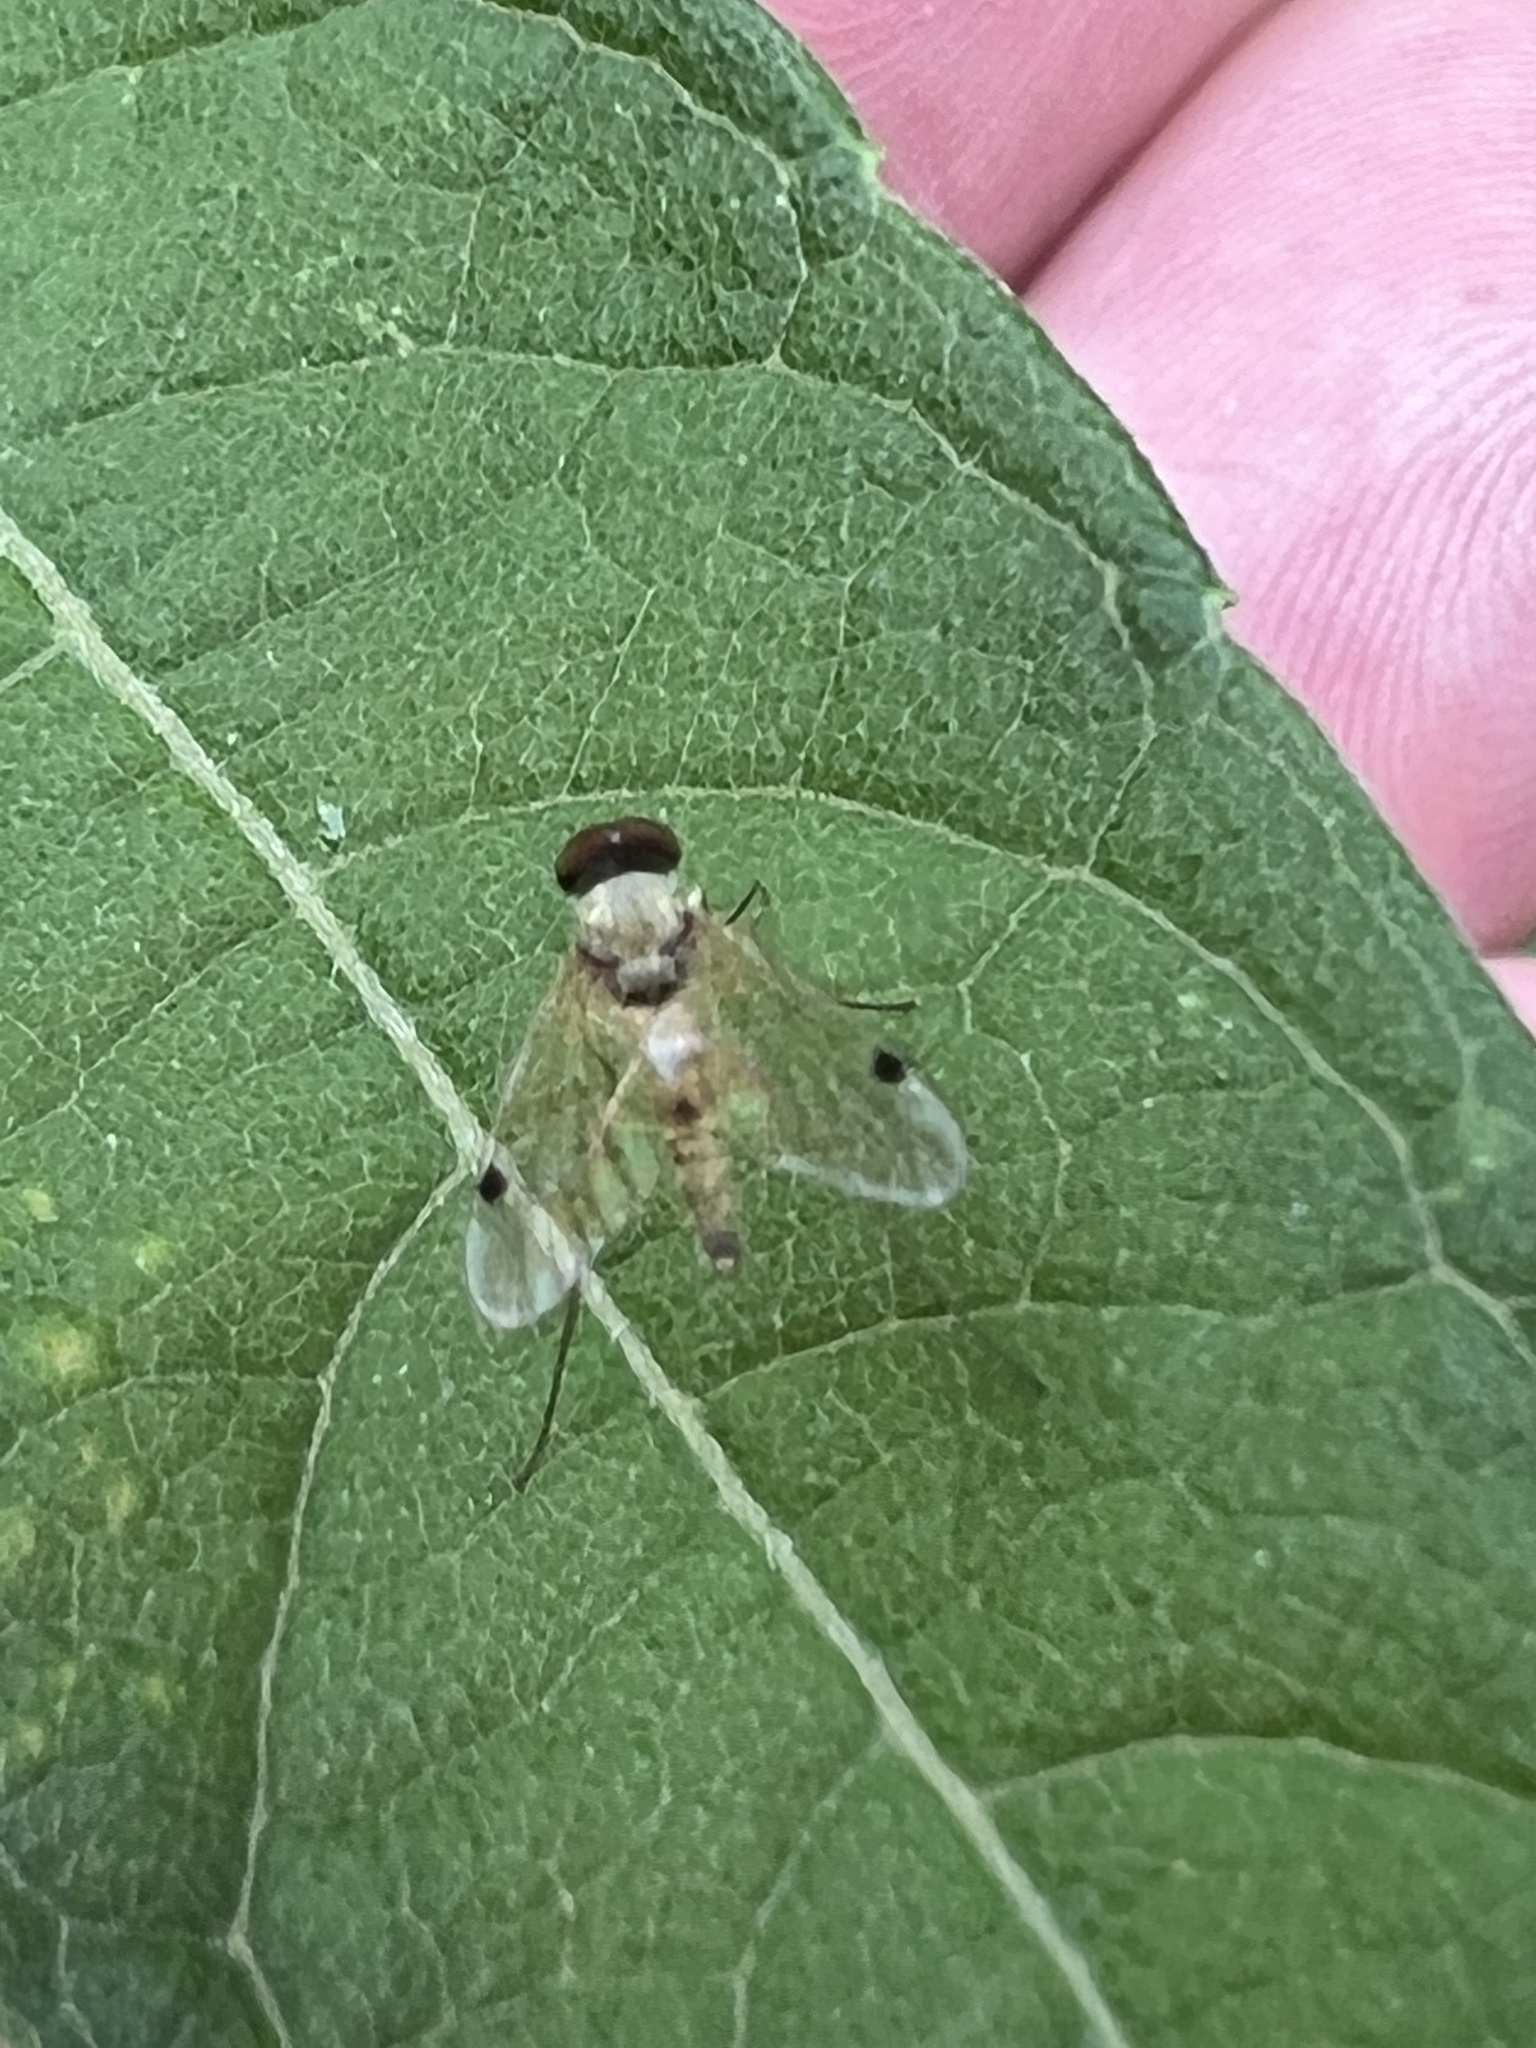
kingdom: Animalia
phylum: Arthropoda
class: Insecta
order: Diptera
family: Rhagionidae
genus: Chrysopilus
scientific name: Chrysopilus modestus
